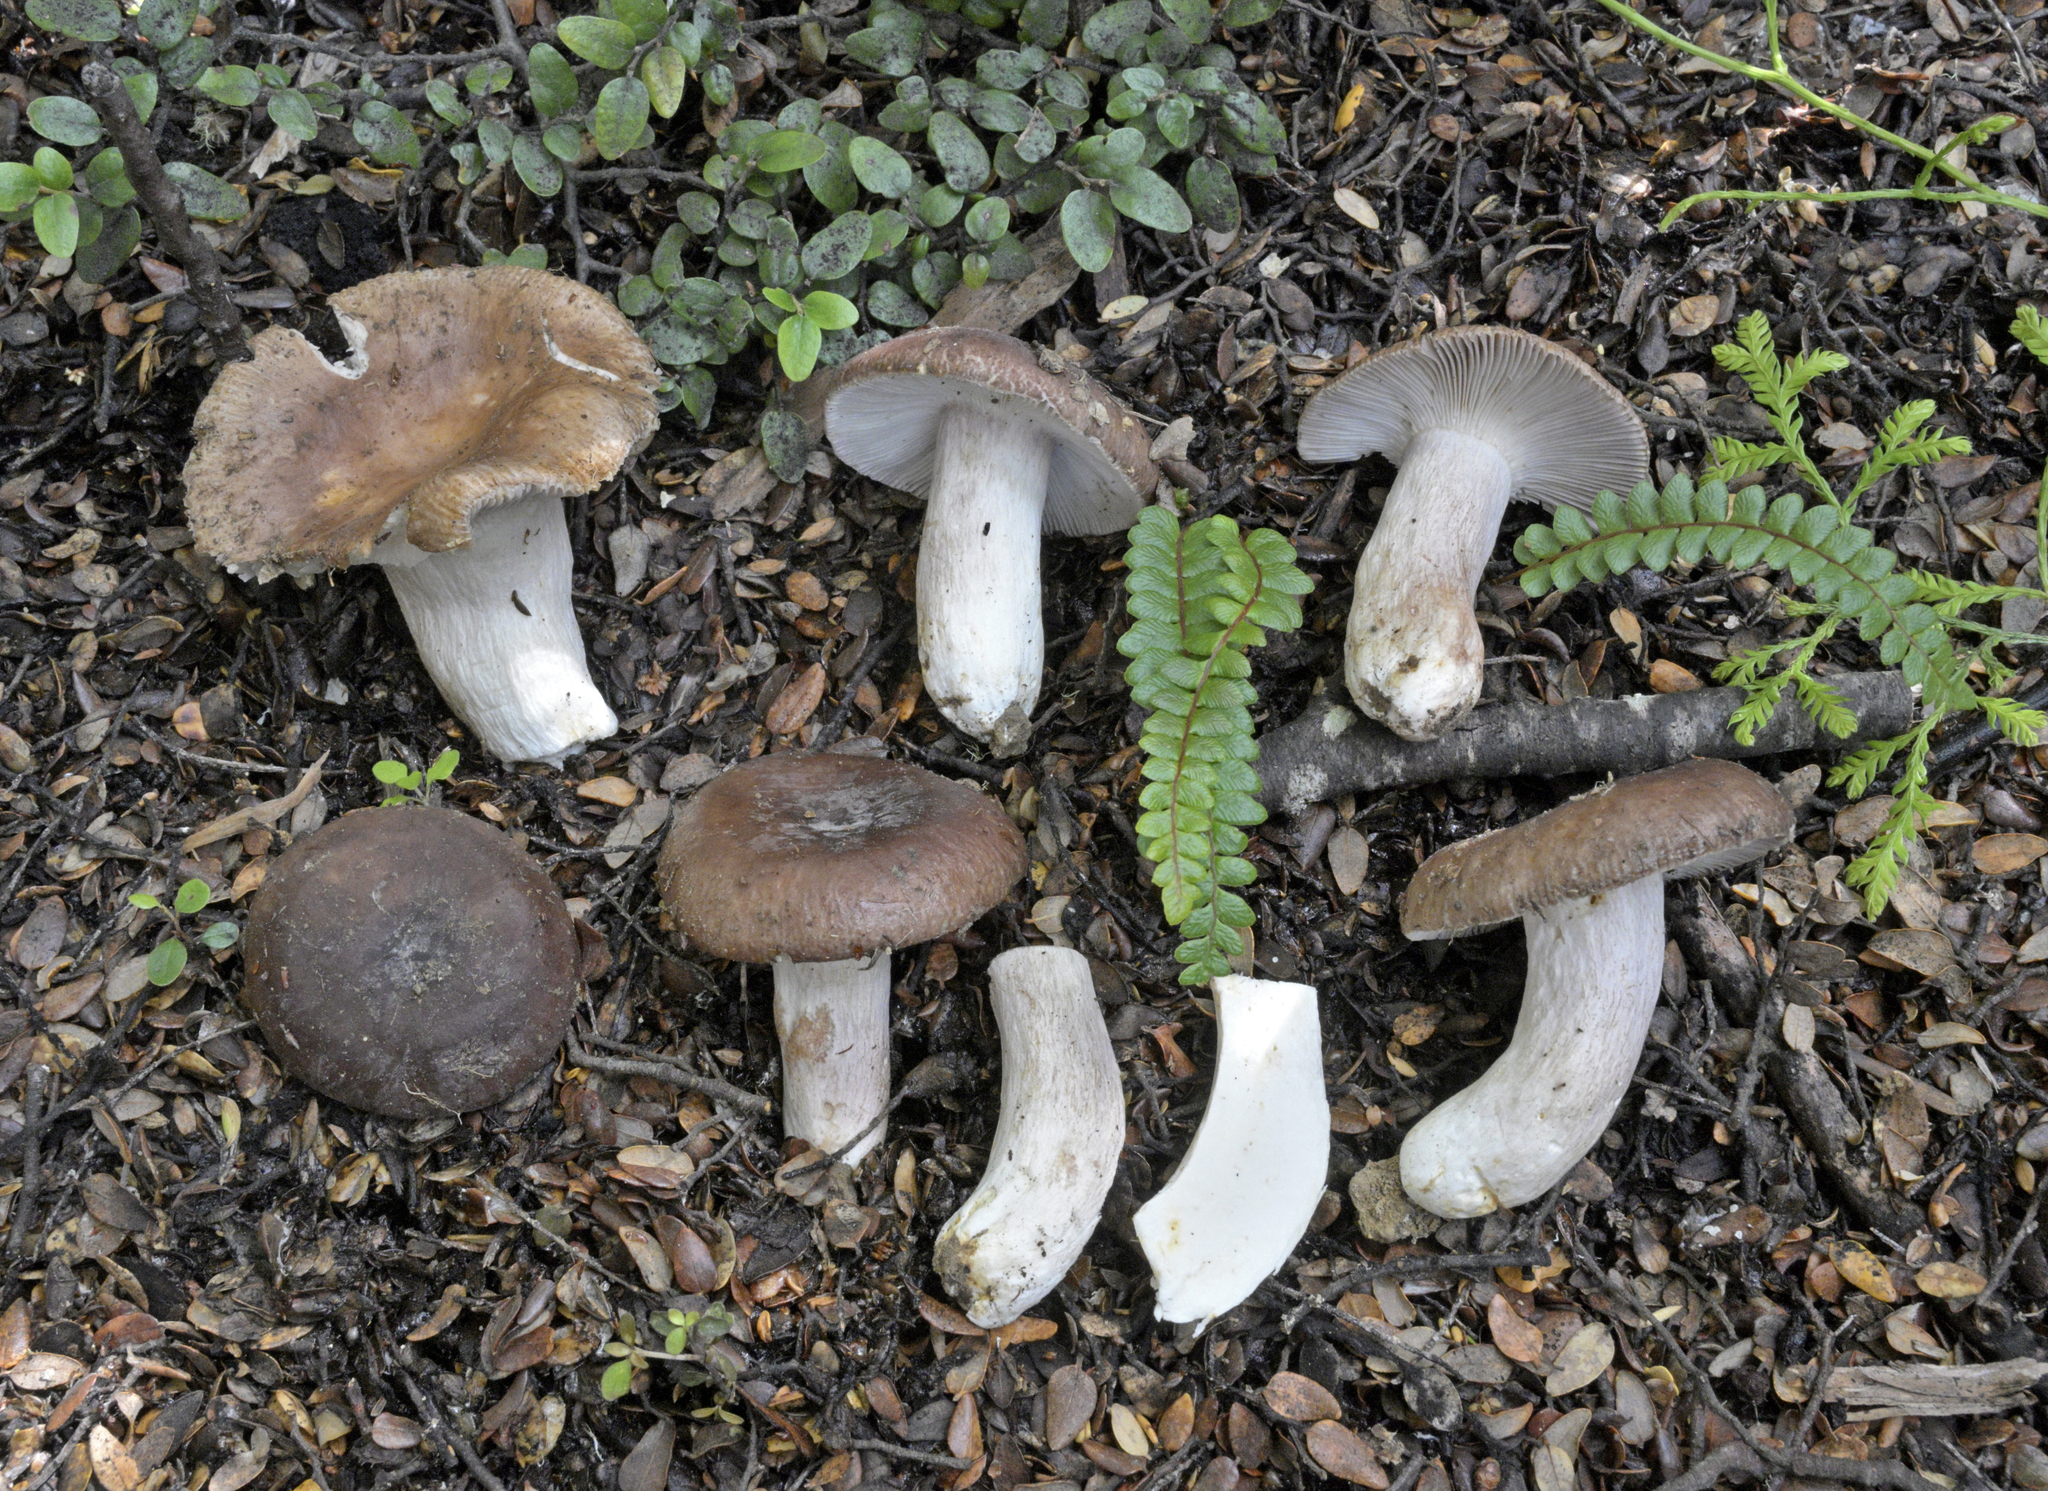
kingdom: Fungi
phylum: Basidiomycota
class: Agaricomycetes
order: Russulales
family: Russulaceae
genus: Russula
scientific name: Russula griseostipitata
